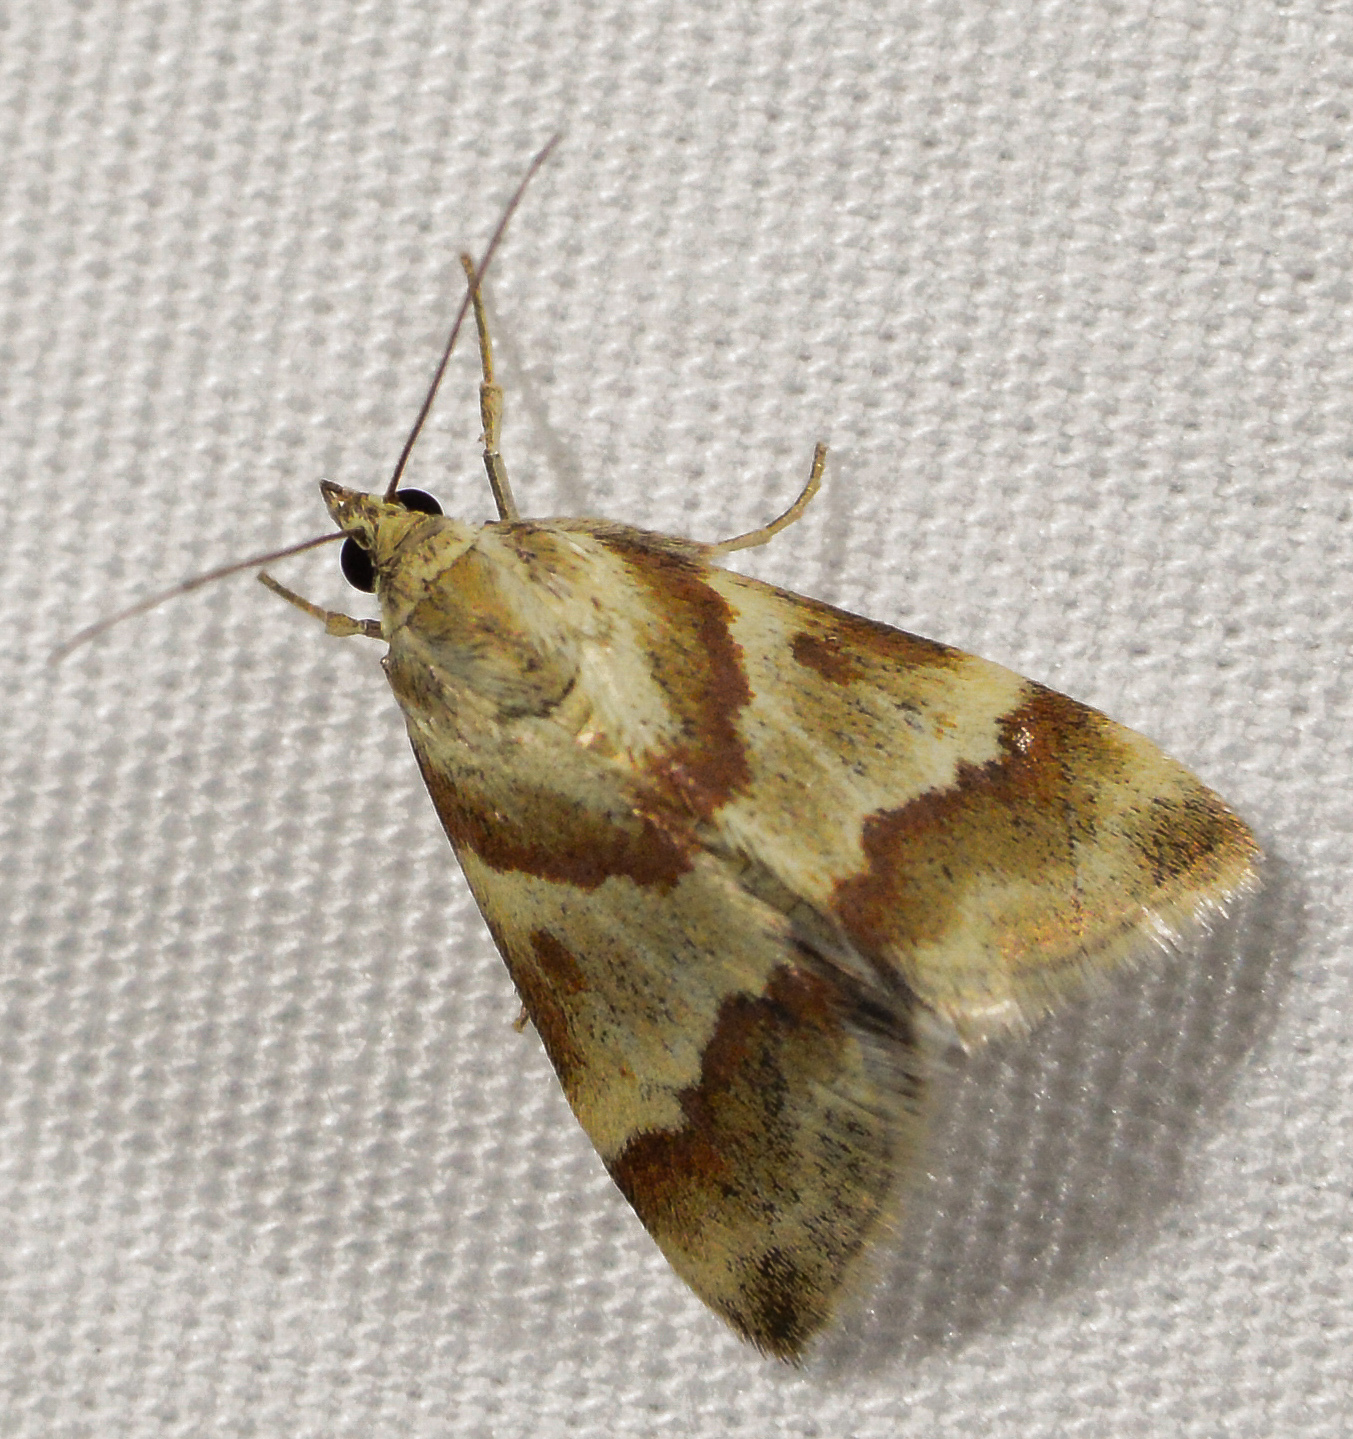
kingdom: Animalia
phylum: Arthropoda
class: Insecta
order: Lepidoptera
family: Crambidae
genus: Noctuelia
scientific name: Noctuelia Mimoschinia rufofascialis
